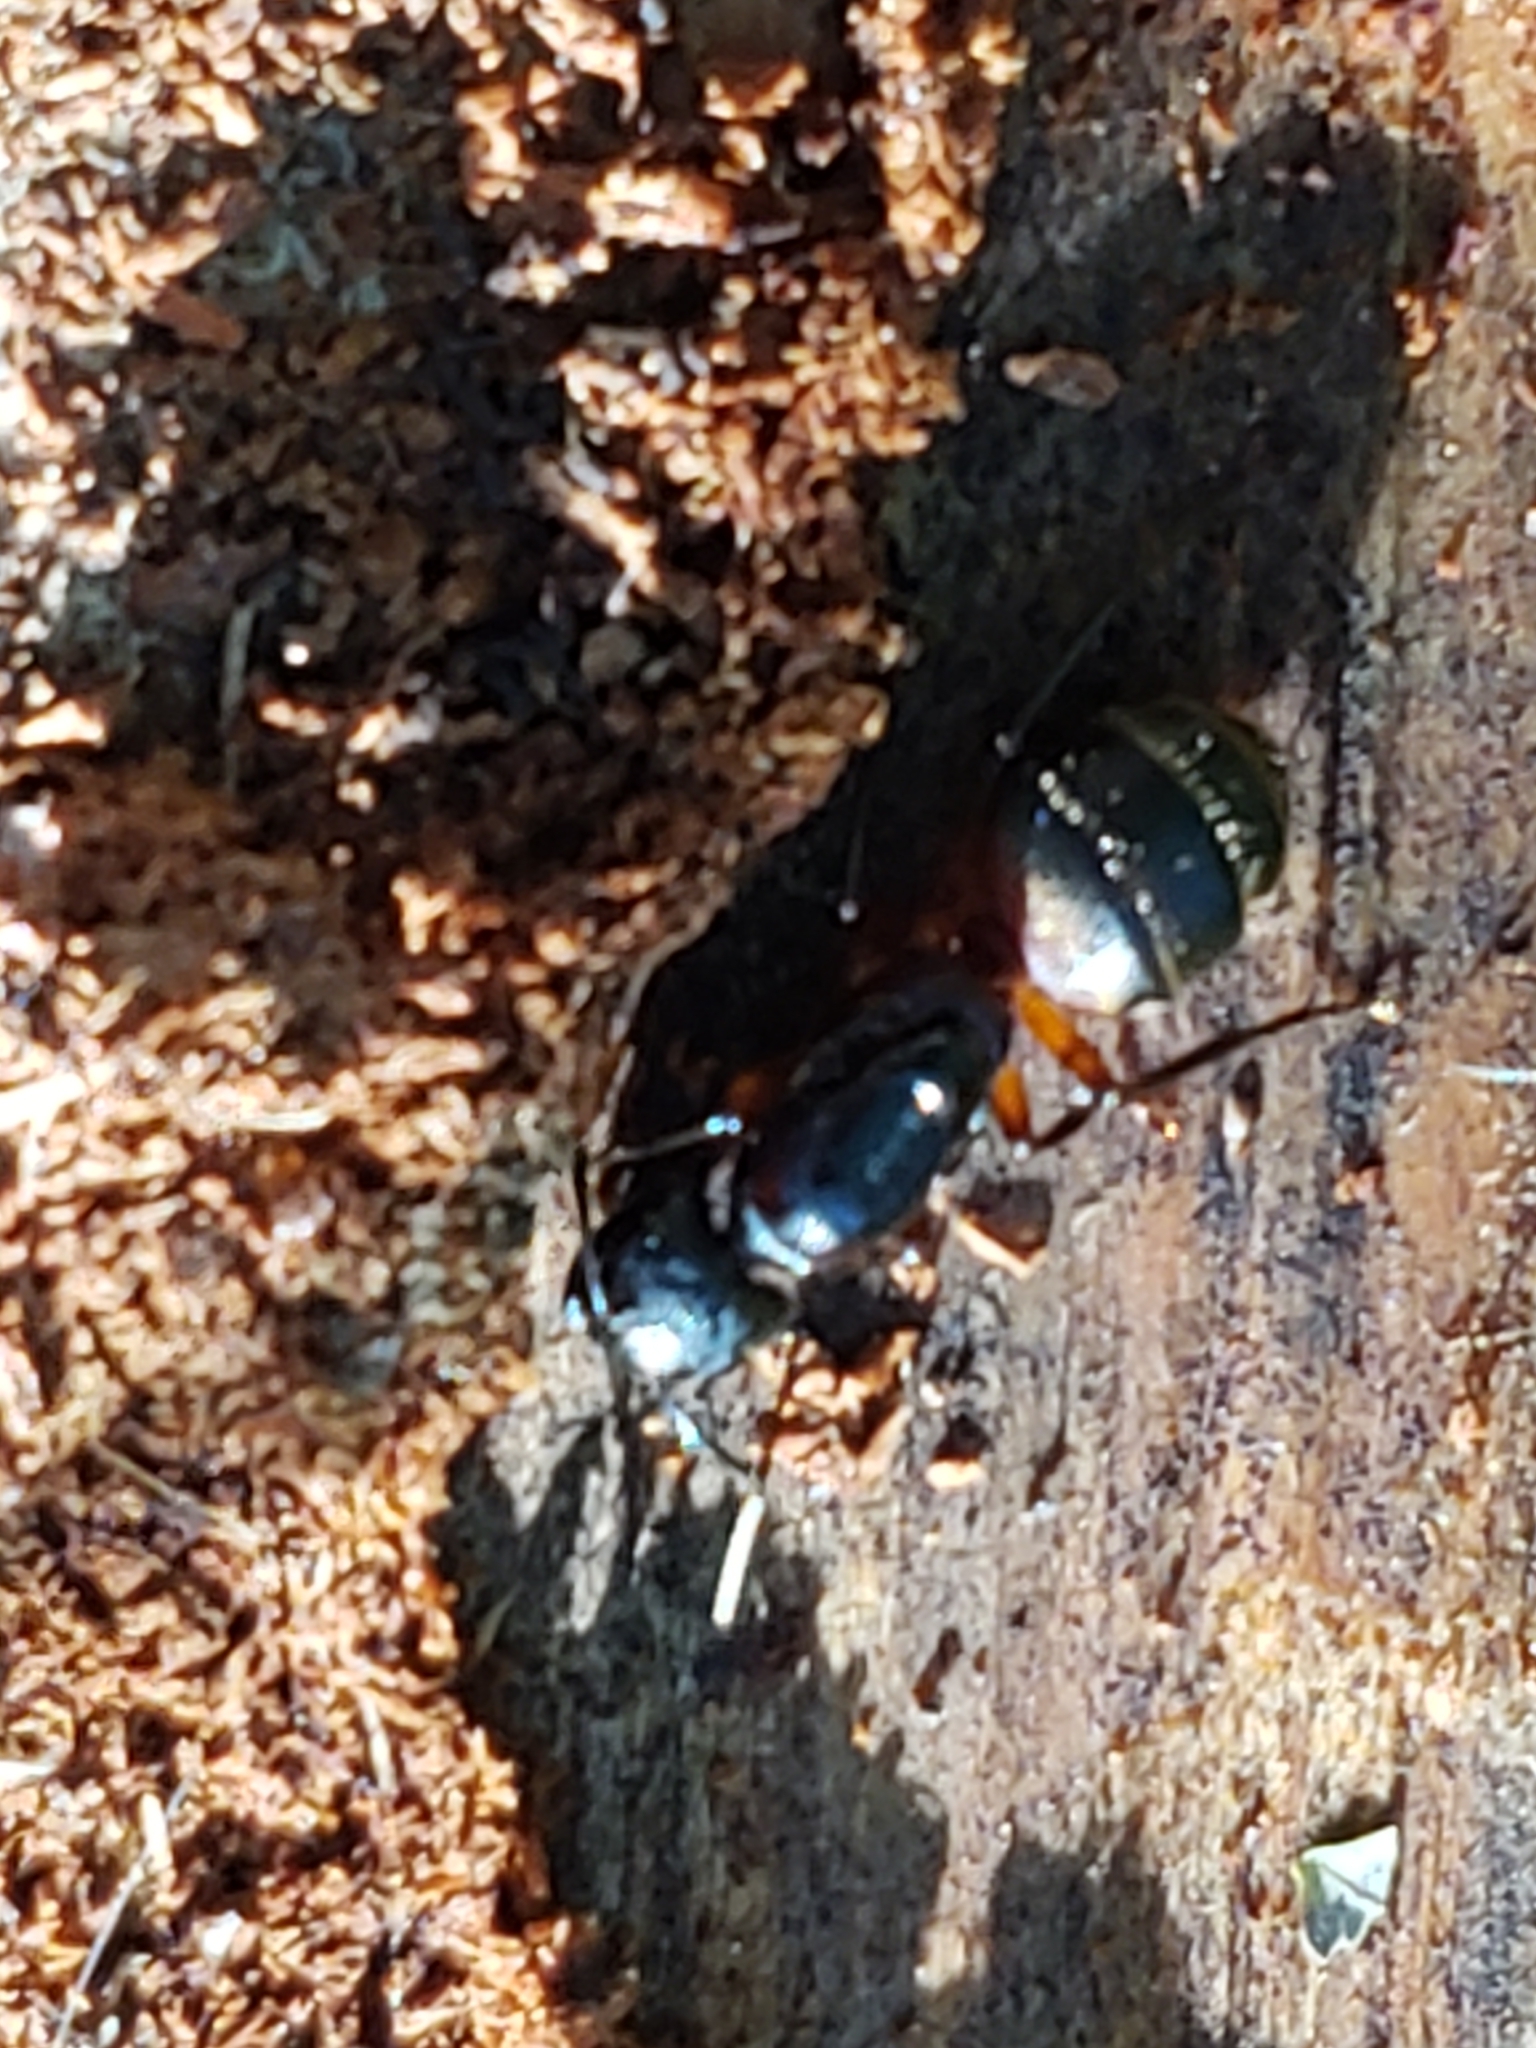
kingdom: Animalia
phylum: Arthropoda
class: Insecta
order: Hymenoptera
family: Formicidae
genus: Camponotus
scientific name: Camponotus chromaiodes
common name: Red carpenter ant
